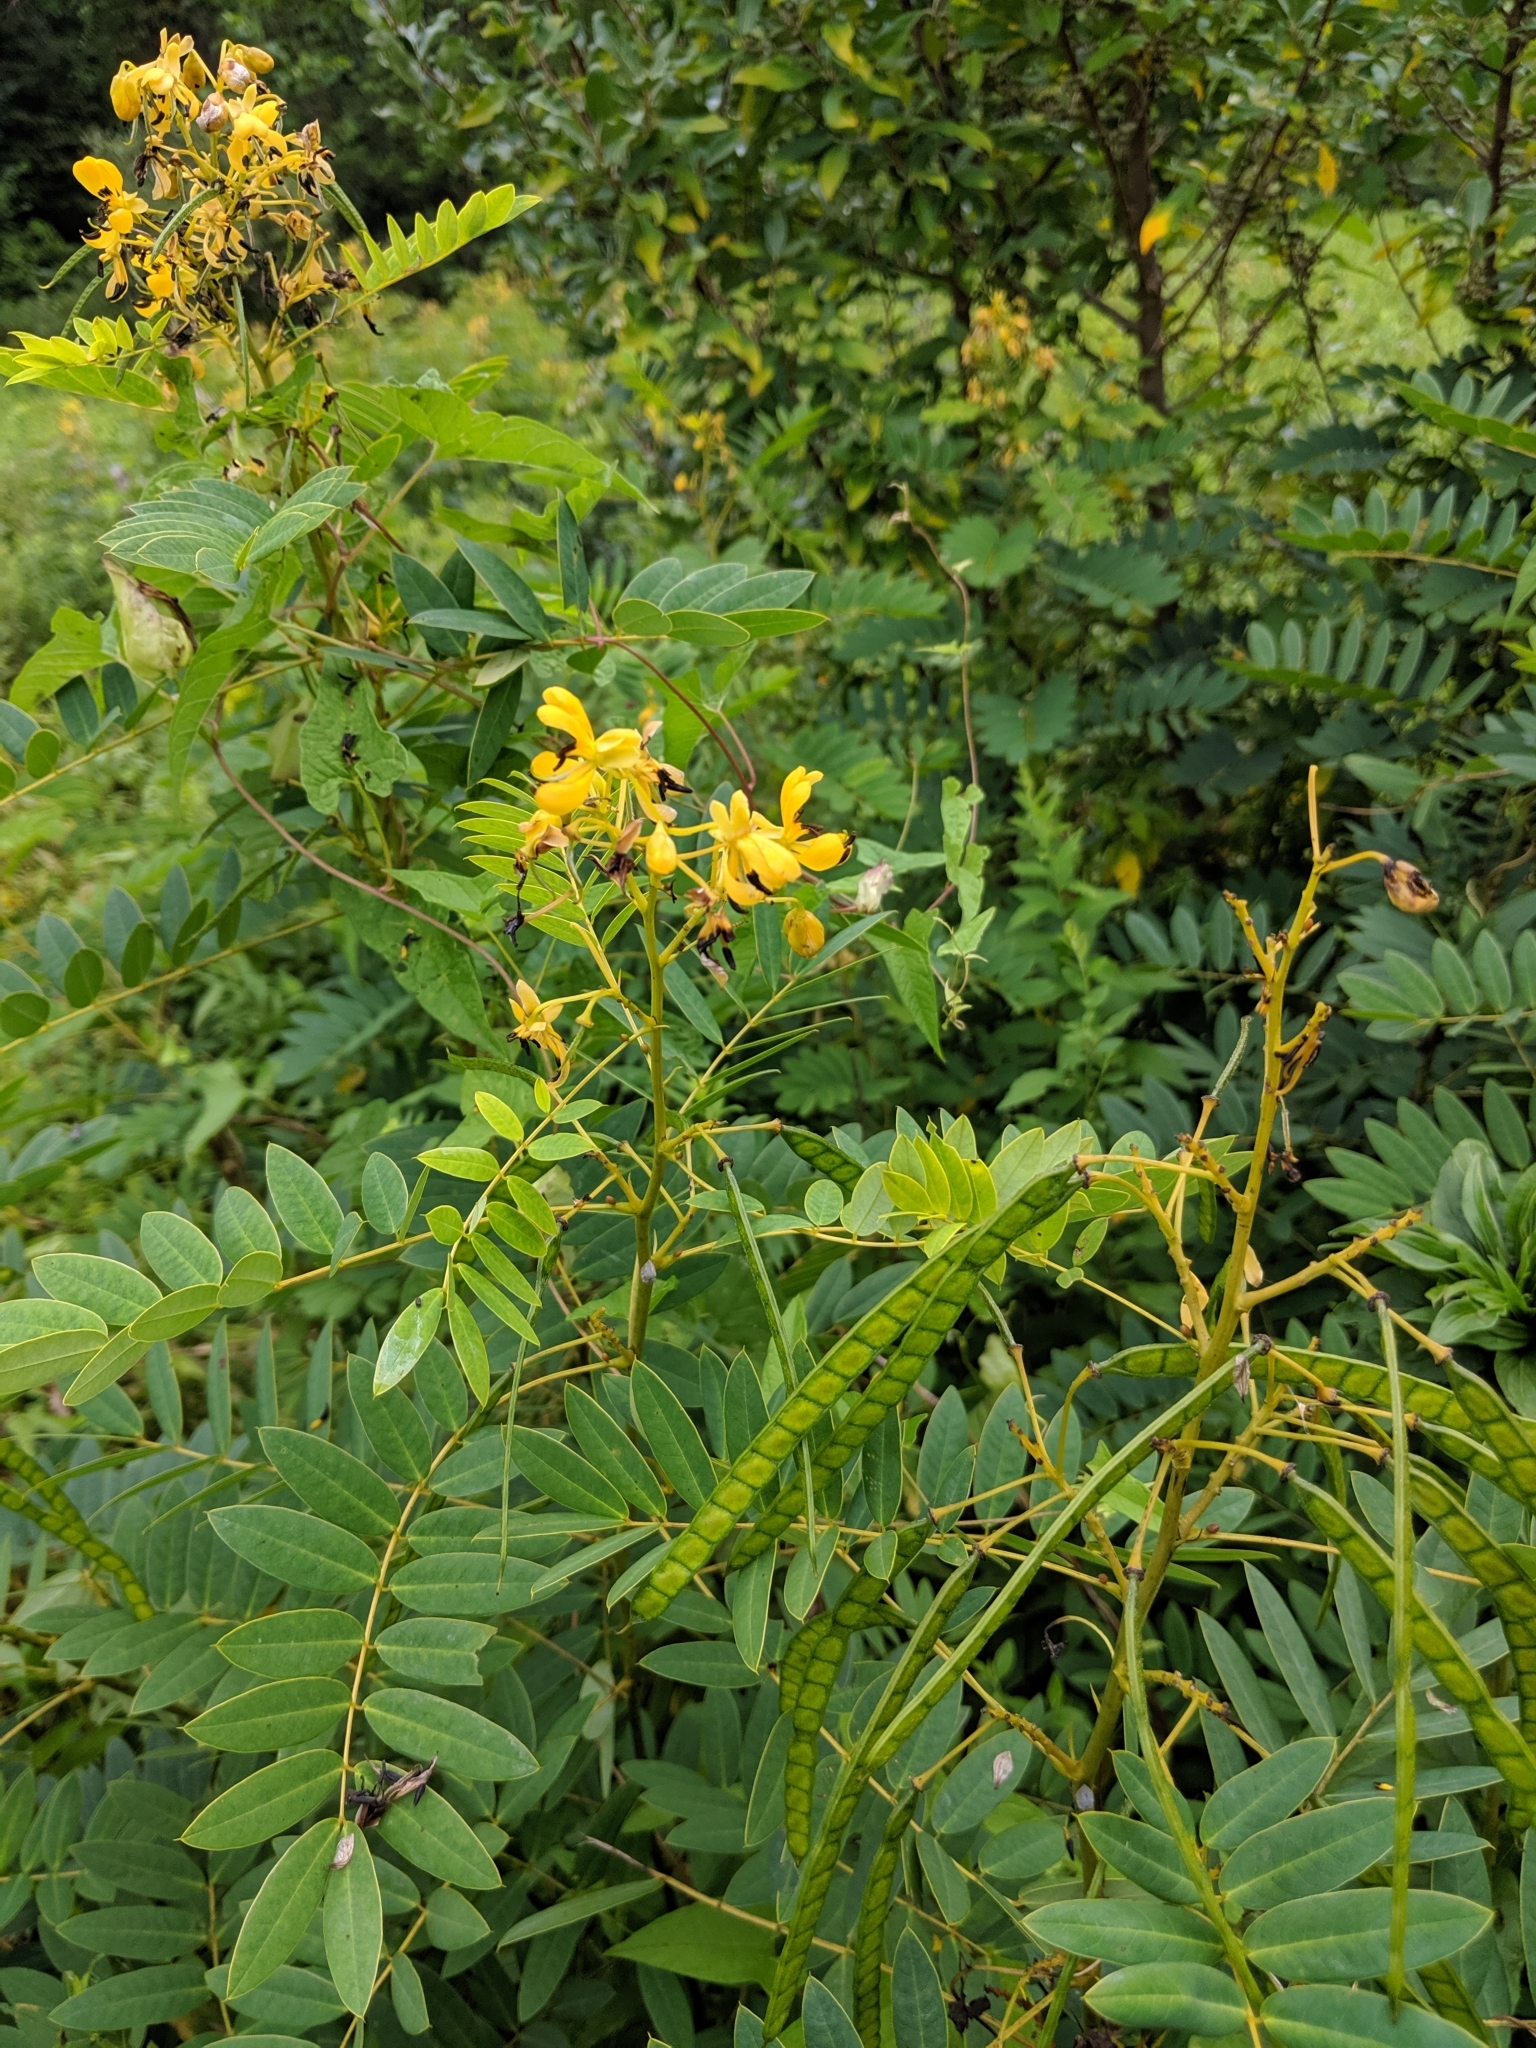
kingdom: Plantae
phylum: Tracheophyta
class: Magnoliopsida
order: Fabales
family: Fabaceae
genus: Senna
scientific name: Senna hebecarpa
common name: Wild senna
